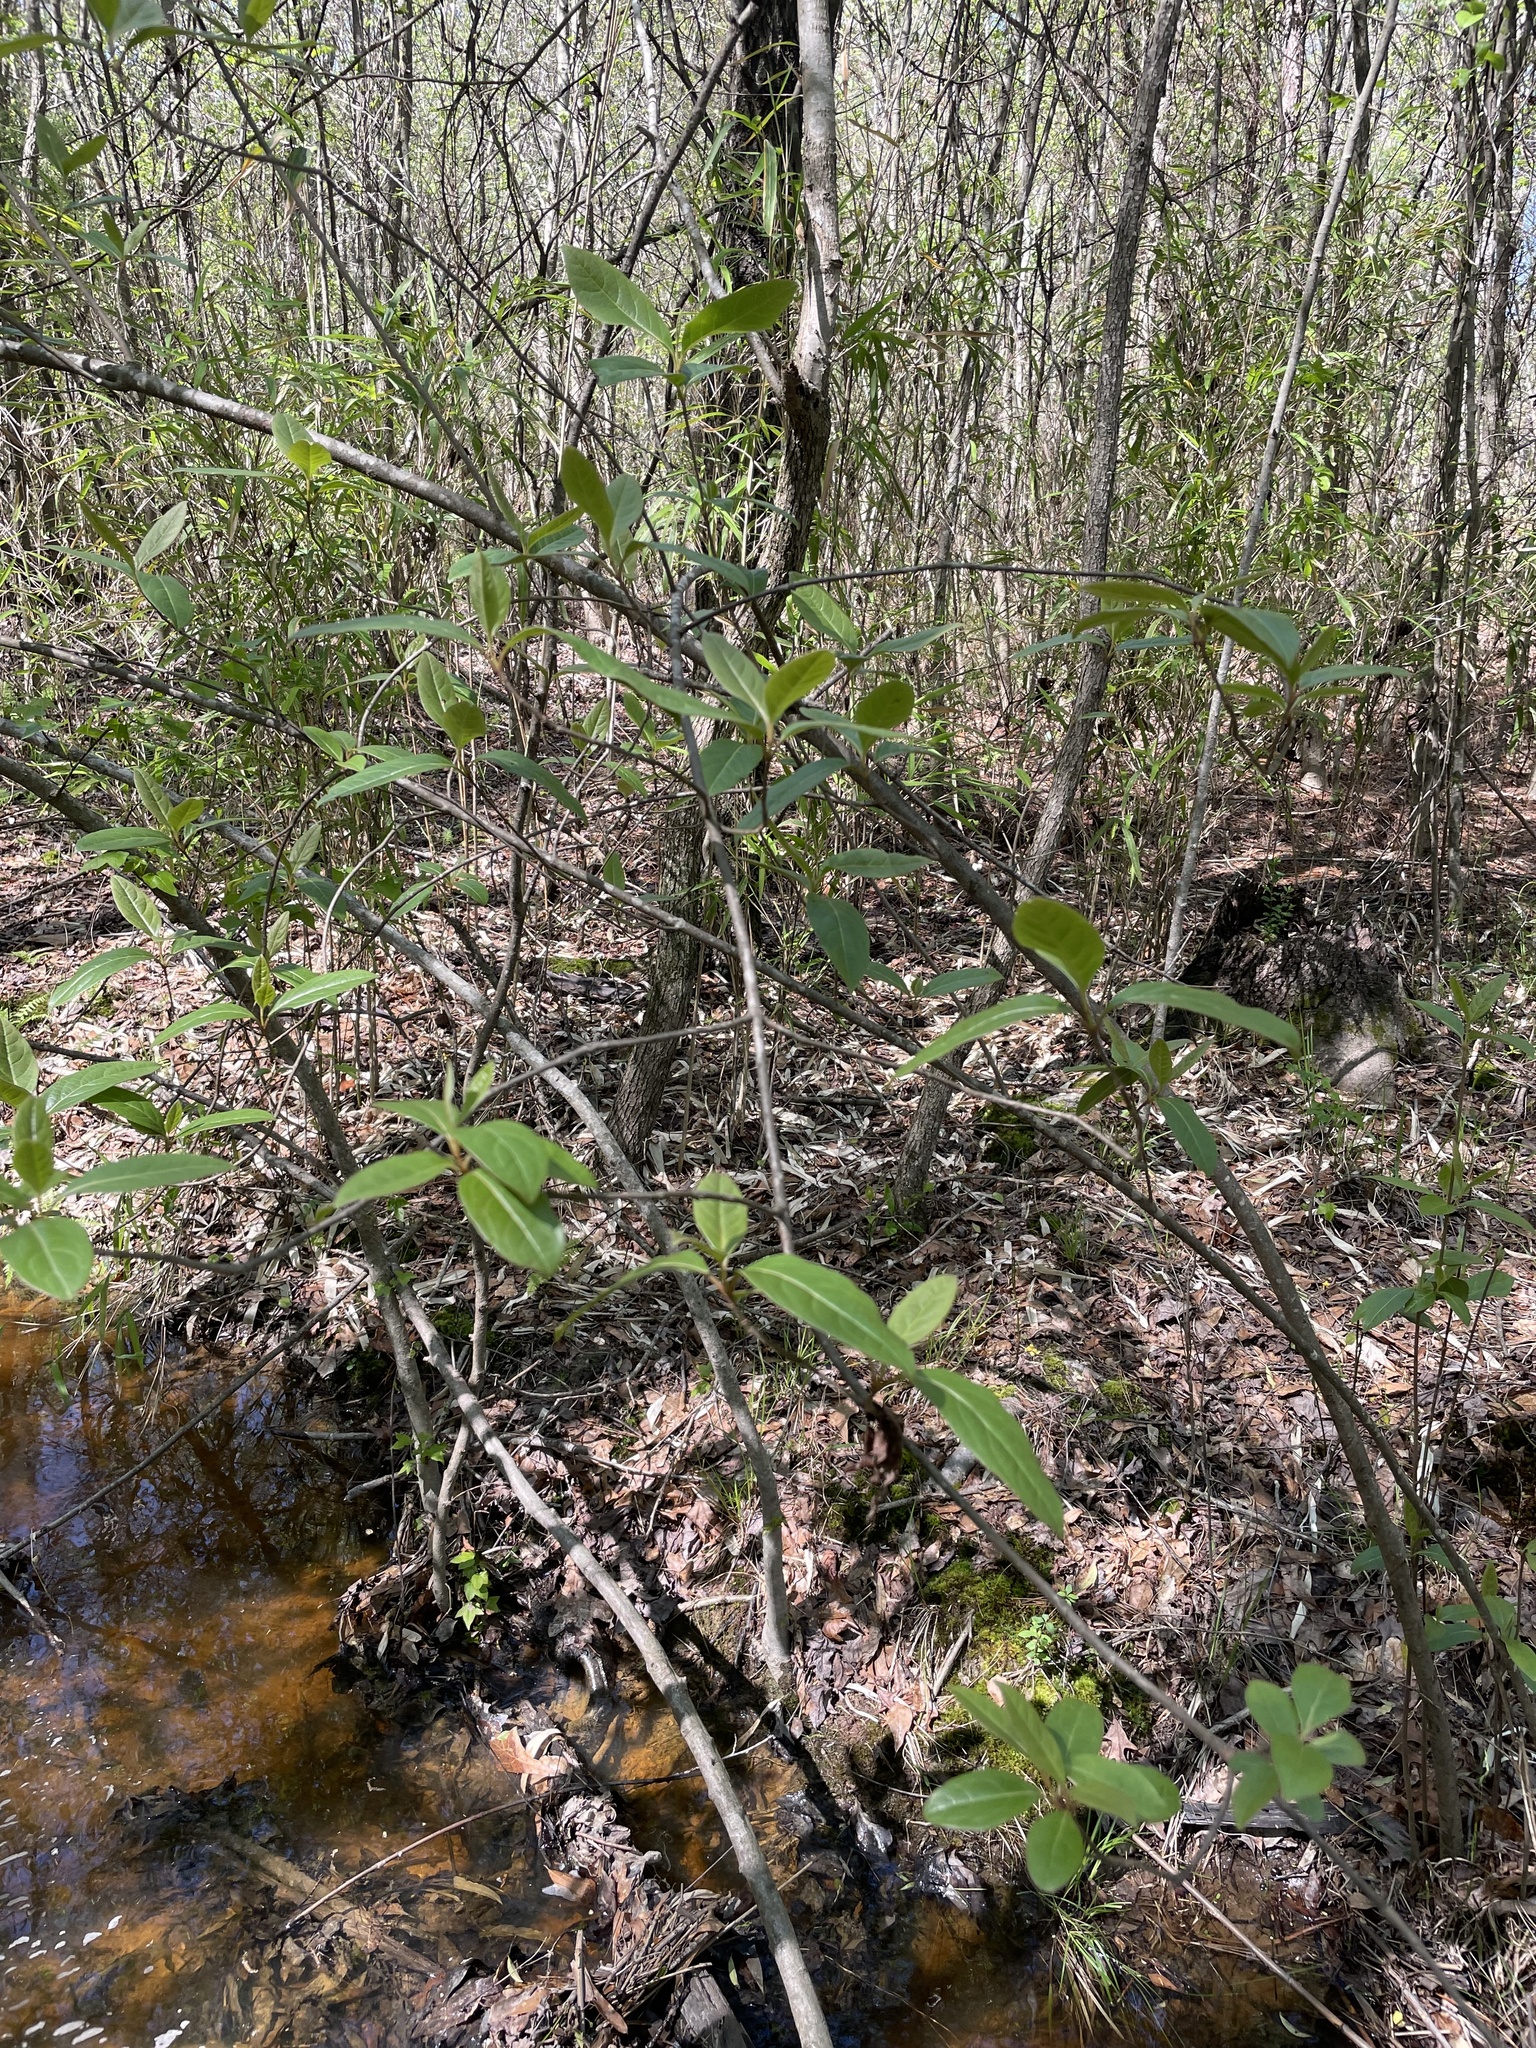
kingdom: Plantae
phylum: Tracheophyta
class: Magnoliopsida
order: Dipsacales
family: Viburnaceae
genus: Viburnum
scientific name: Viburnum nudum
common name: Possum haw
